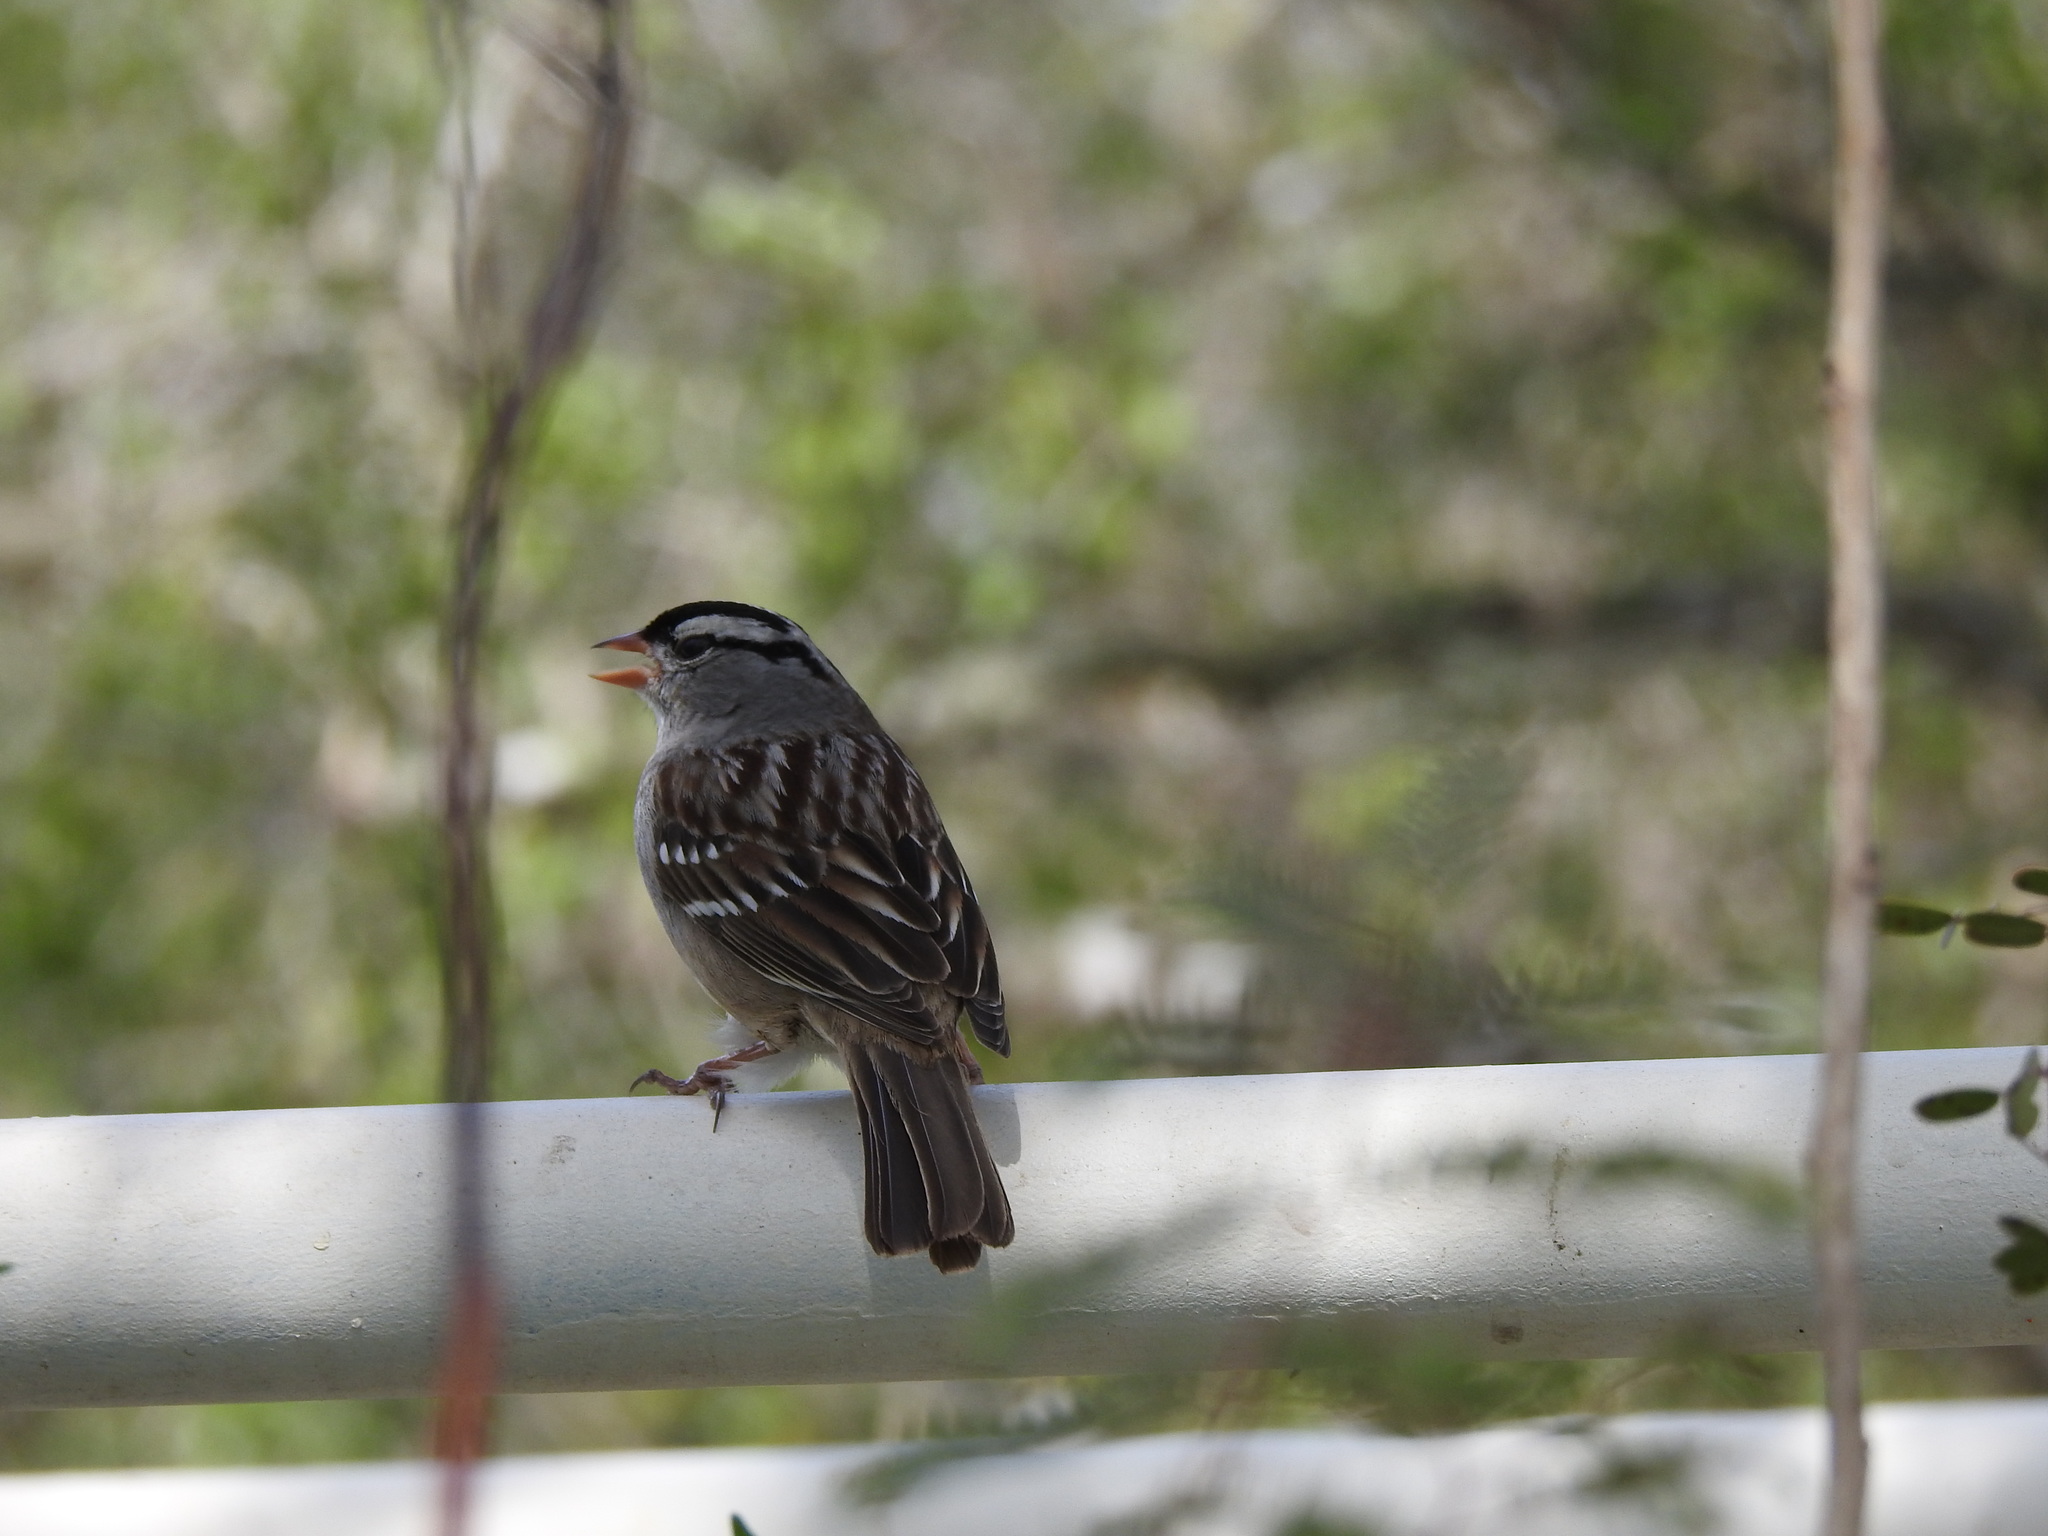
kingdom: Animalia
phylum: Chordata
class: Aves
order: Passeriformes
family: Passerellidae
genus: Zonotrichia
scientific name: Zonotrichia leucophrys
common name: White-crowned sparrow
